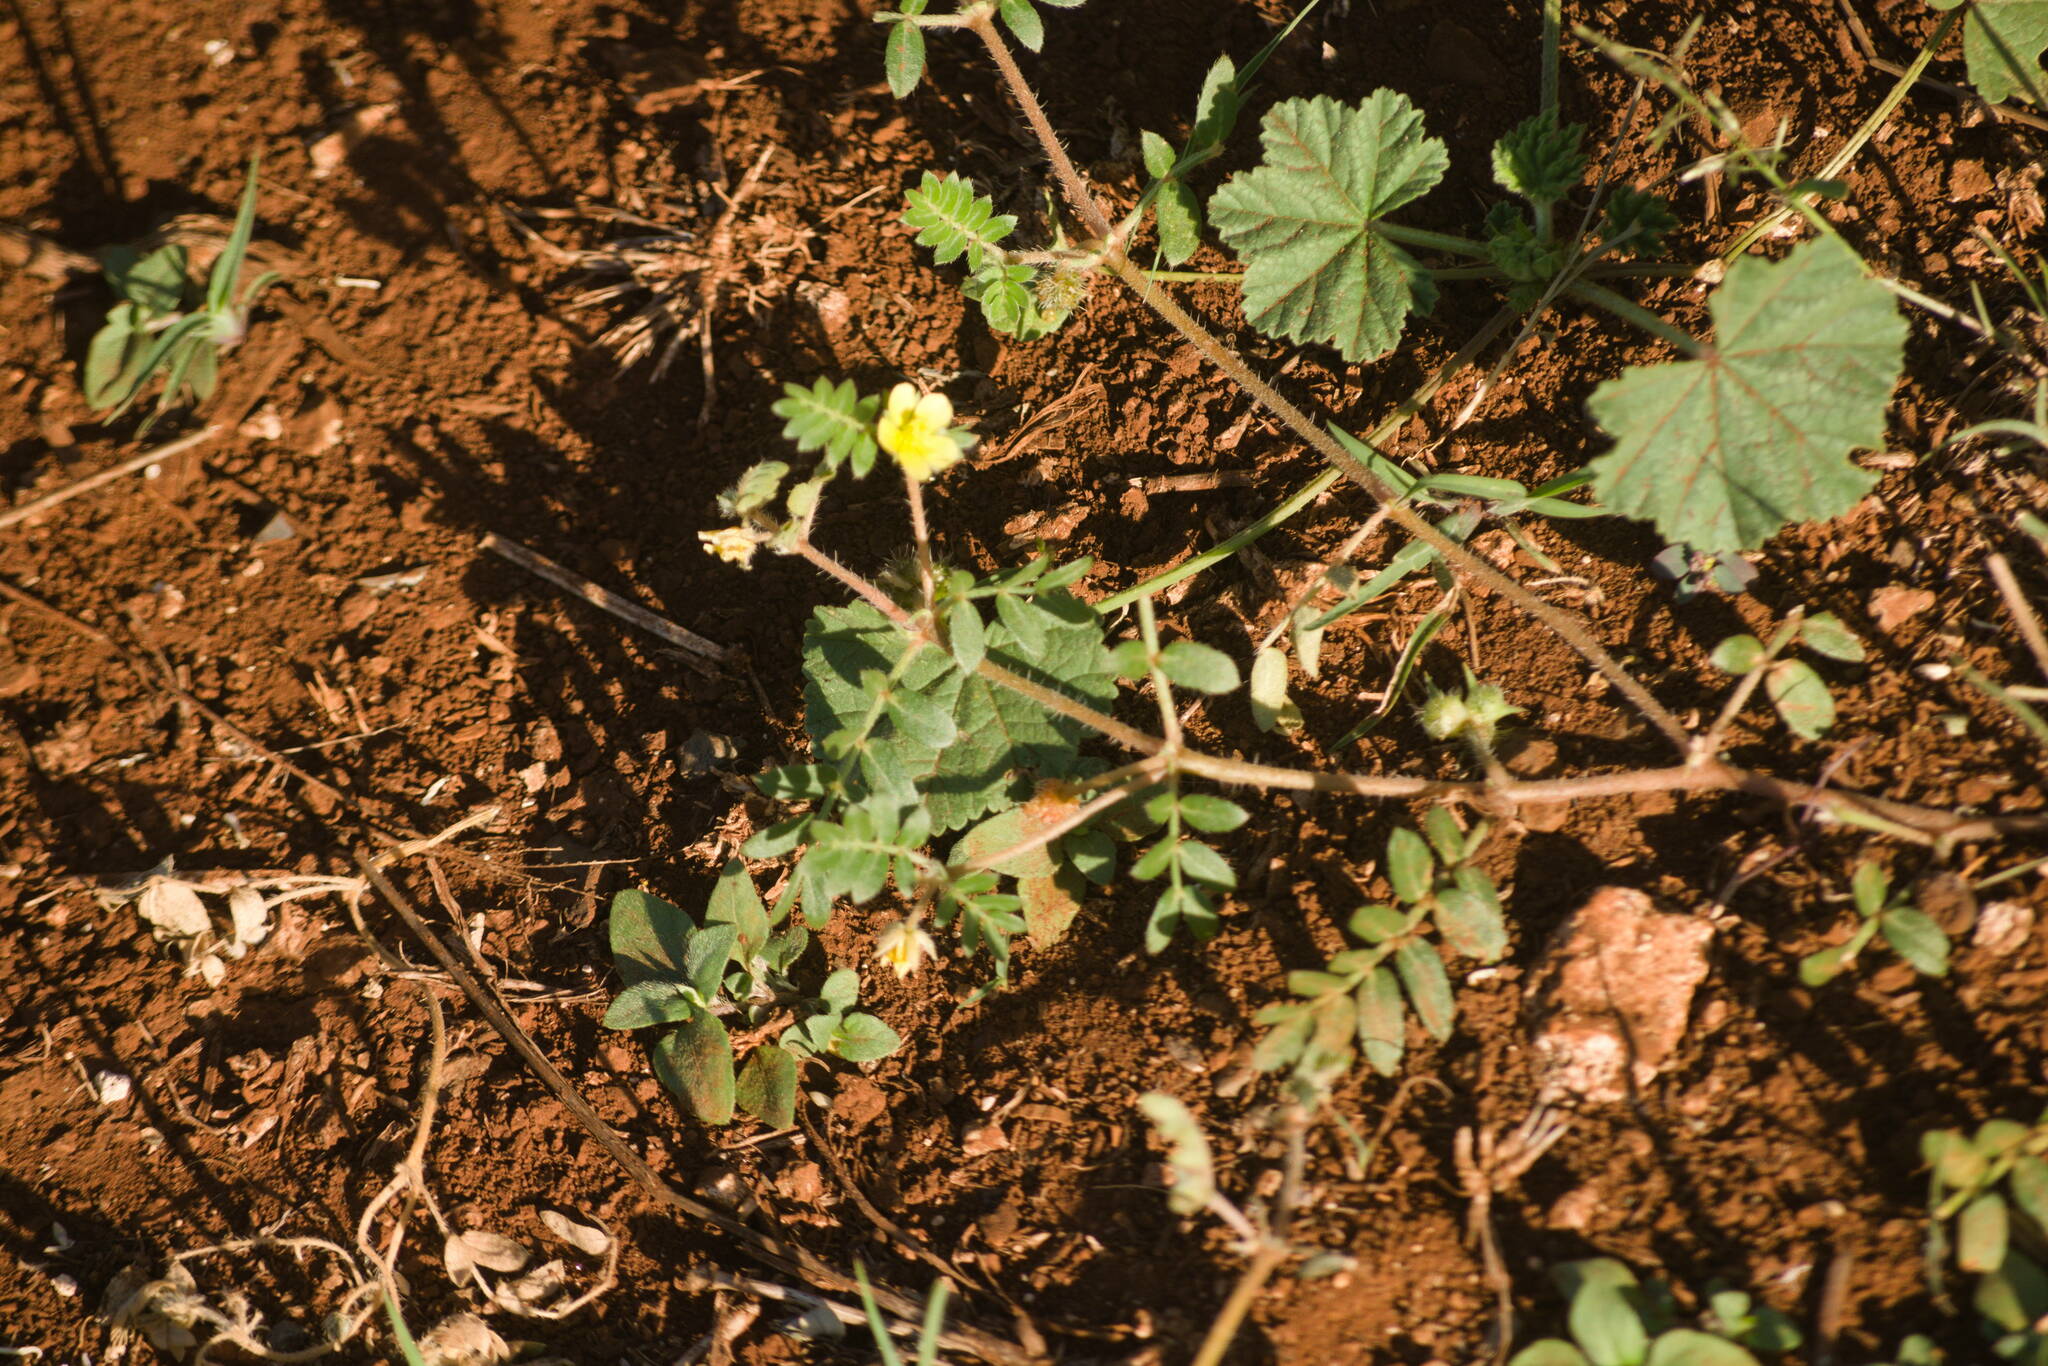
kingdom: Plantae
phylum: Tracheophyta
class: Magnoliopsida
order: Zygophyllales
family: Zygophyllaceae
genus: Tribulus
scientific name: Tribulus terrestris
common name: Puncturevine
